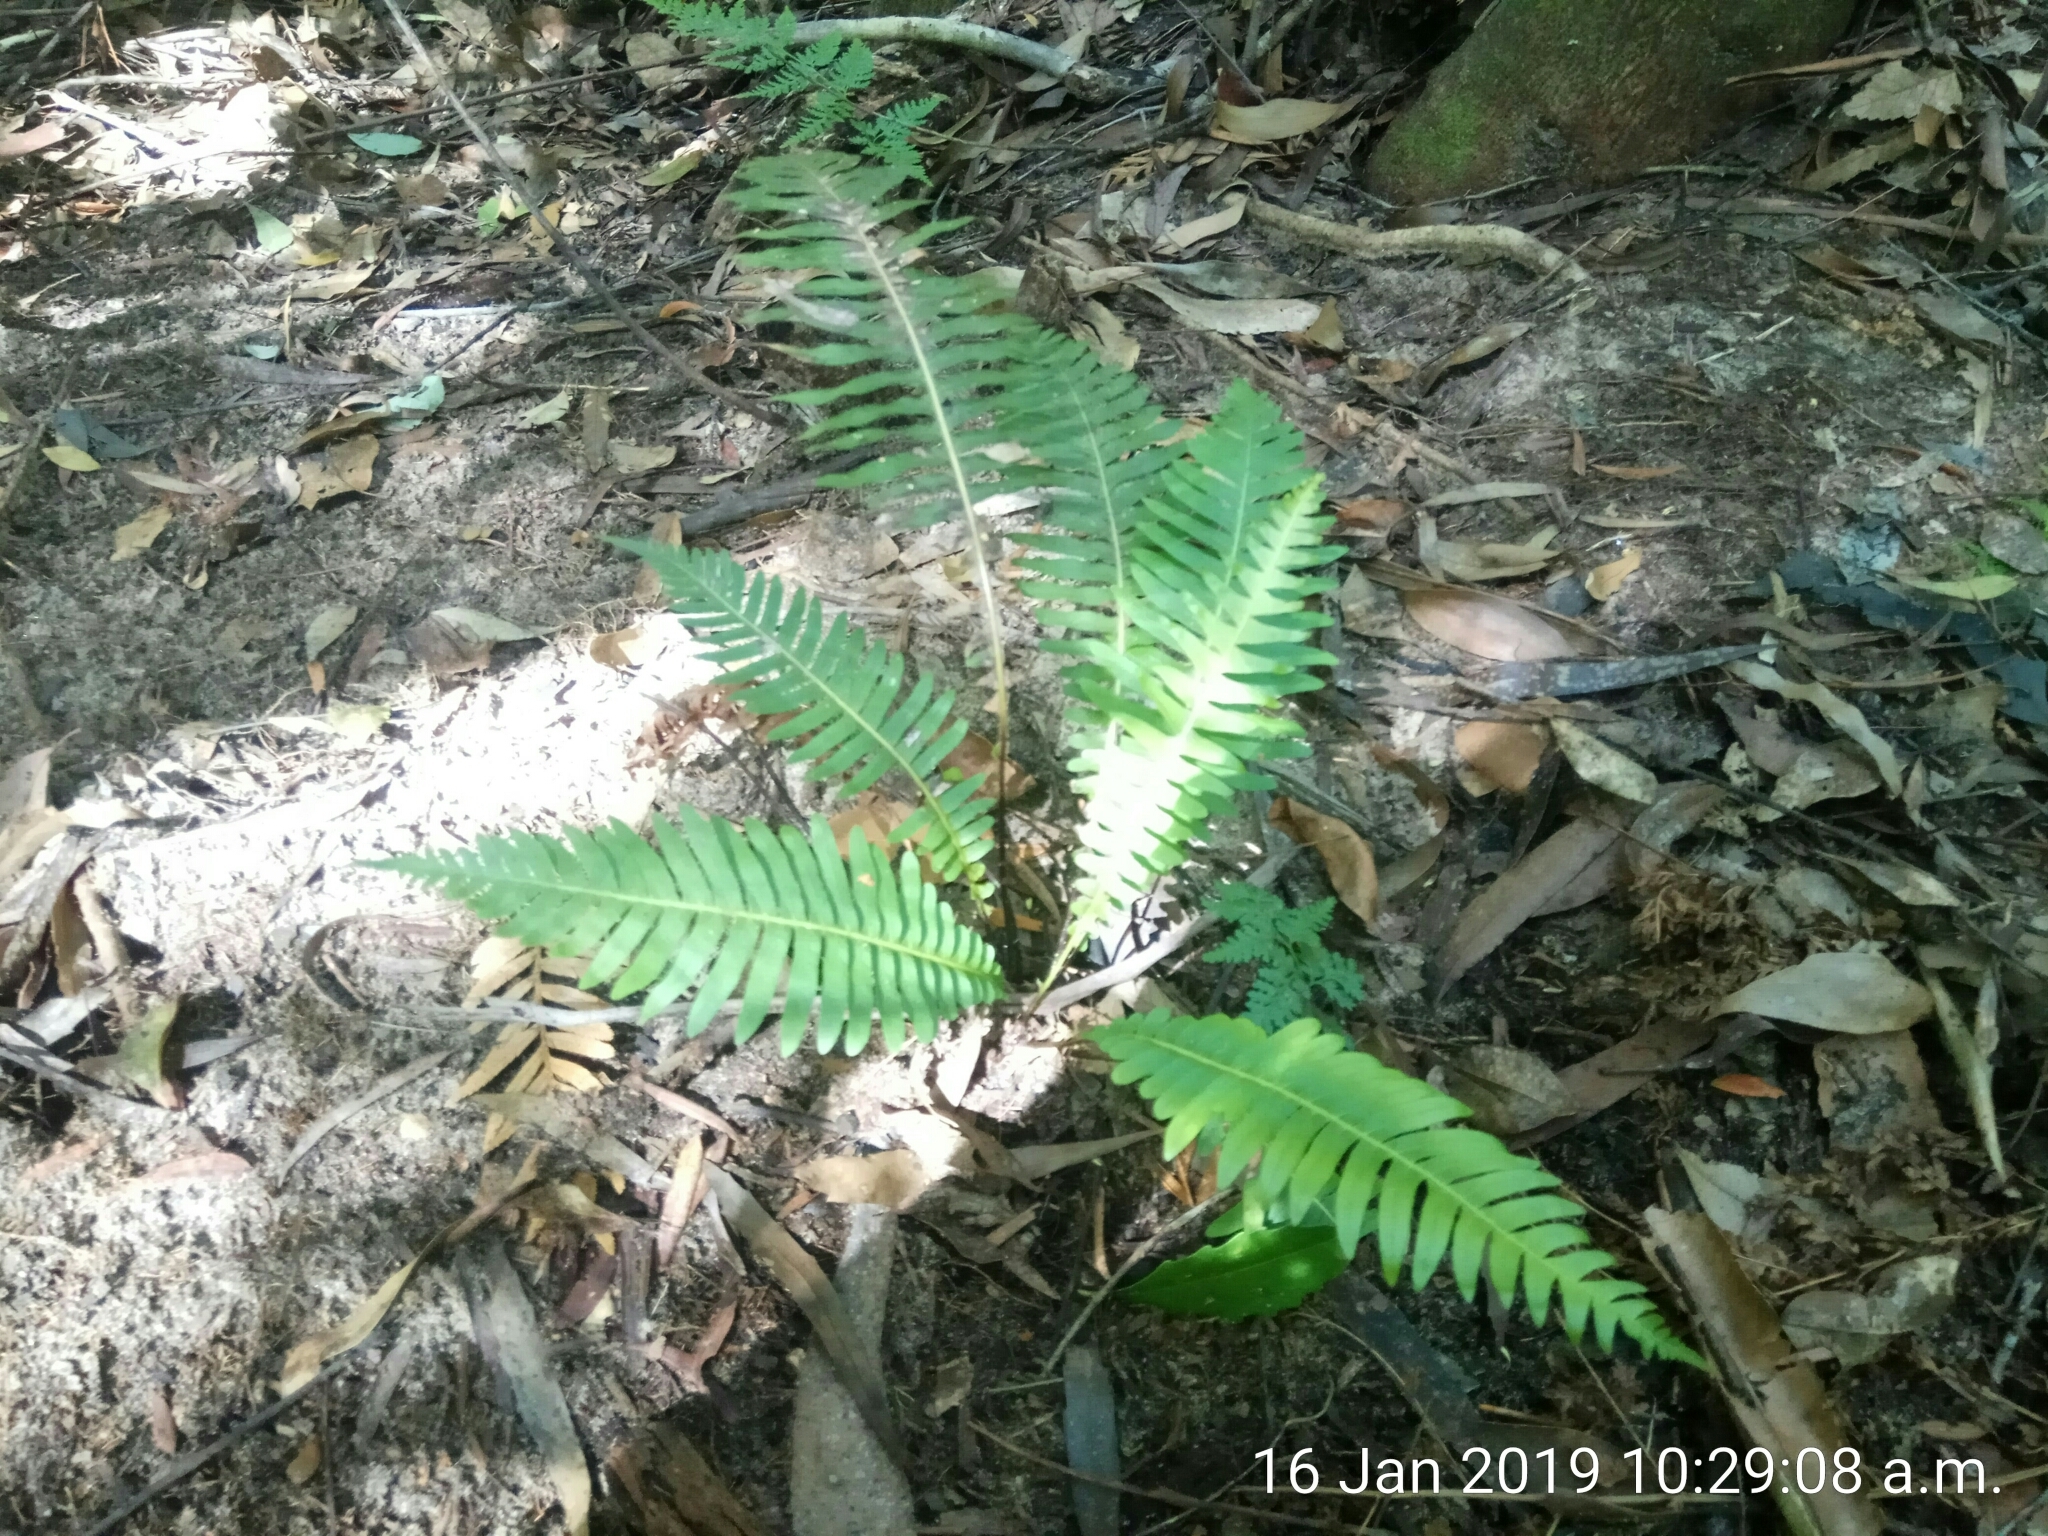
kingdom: Plantae
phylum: Tracheophyta
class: Polypodiopsida
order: Polypodiales
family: Blechnaceae
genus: Lomaria
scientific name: Lomaria nuda
